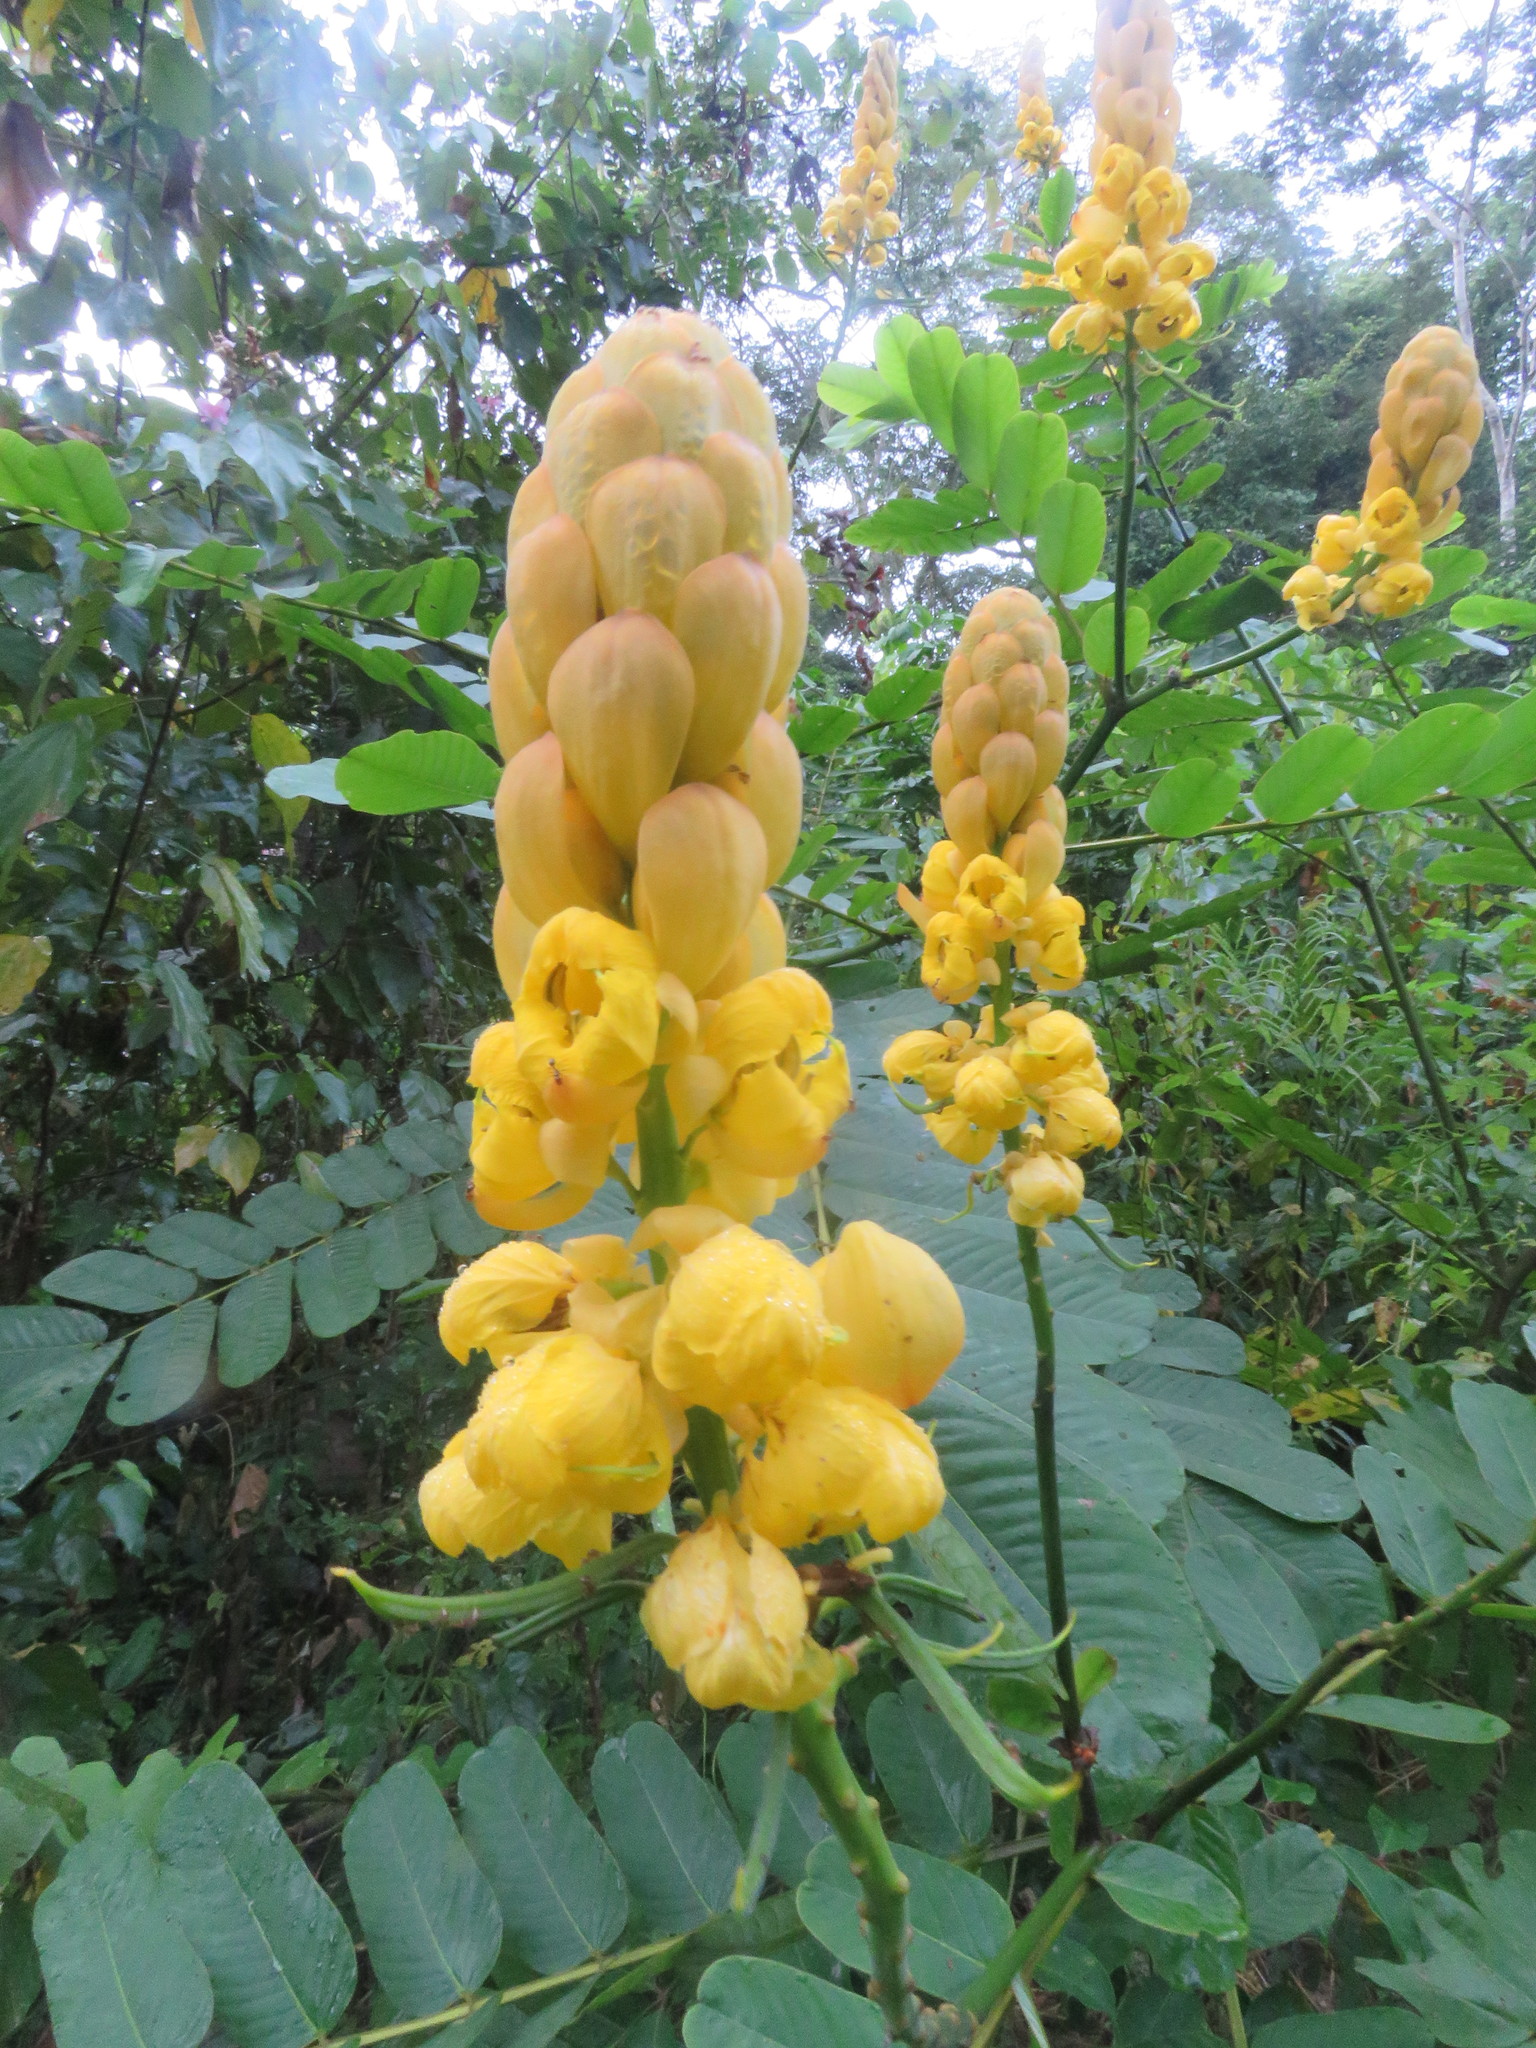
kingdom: Plantae
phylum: Tracheophyta
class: Magnoliopsida
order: Fabales
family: Fabaceae
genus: Senna
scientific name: Senna alata
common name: Emperor's candlesticks
